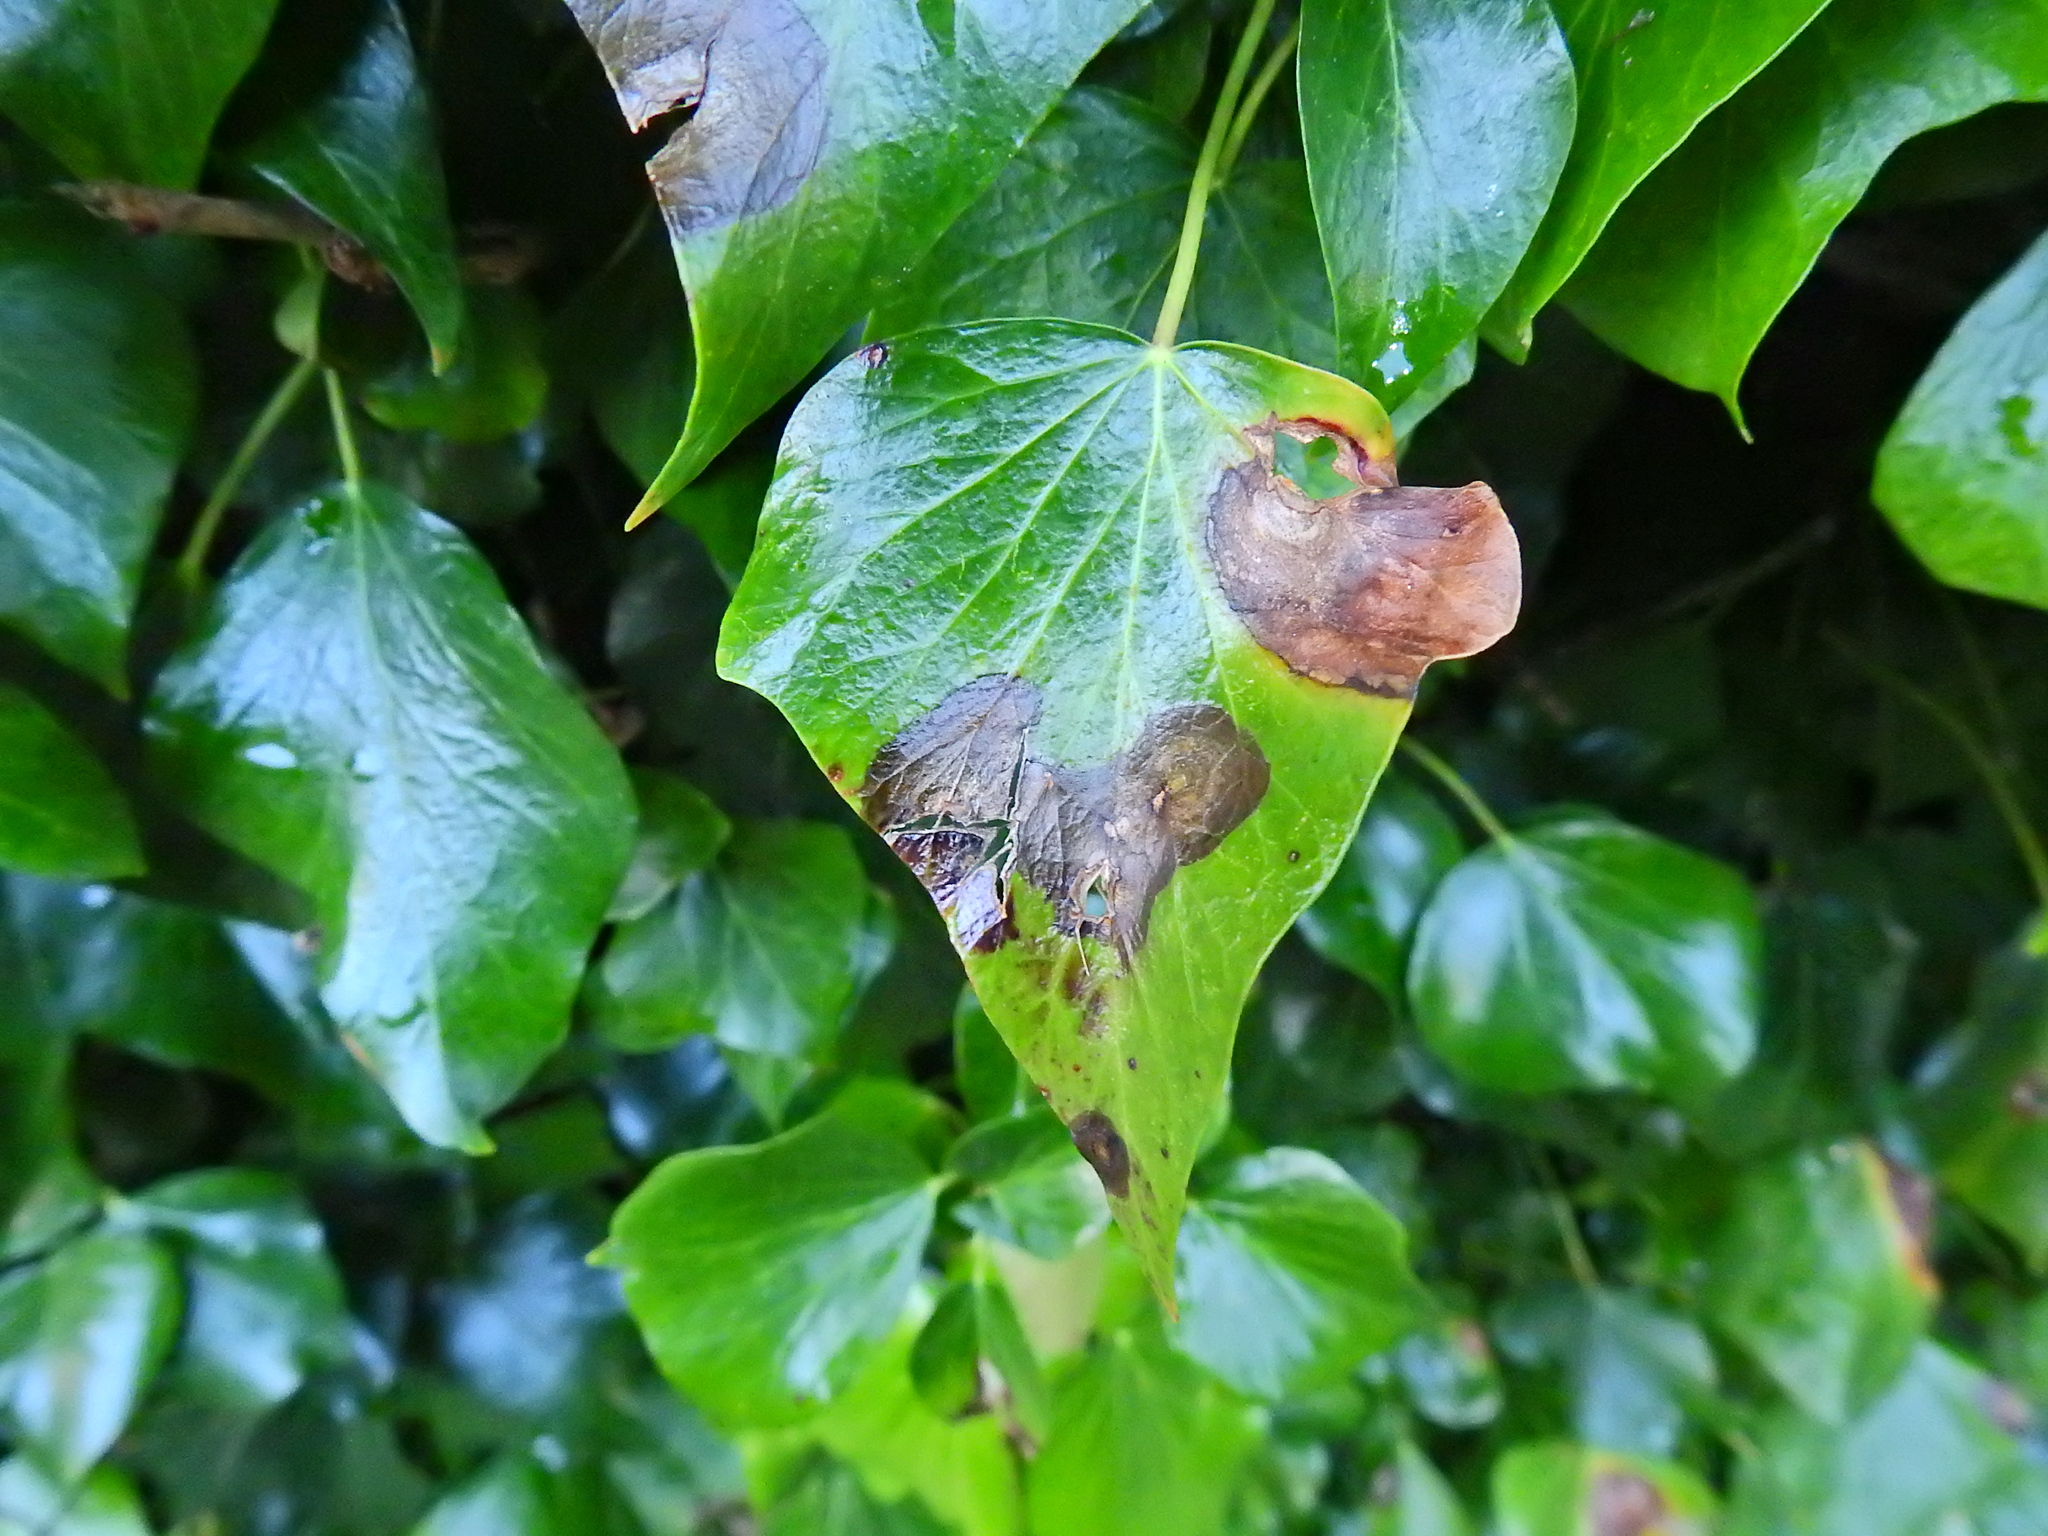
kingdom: Fungi
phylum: Ascomycota
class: Dothideomycetes
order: Pleosporales
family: Didymellaceae
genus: Boeremia
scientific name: Boeremia hedericola
